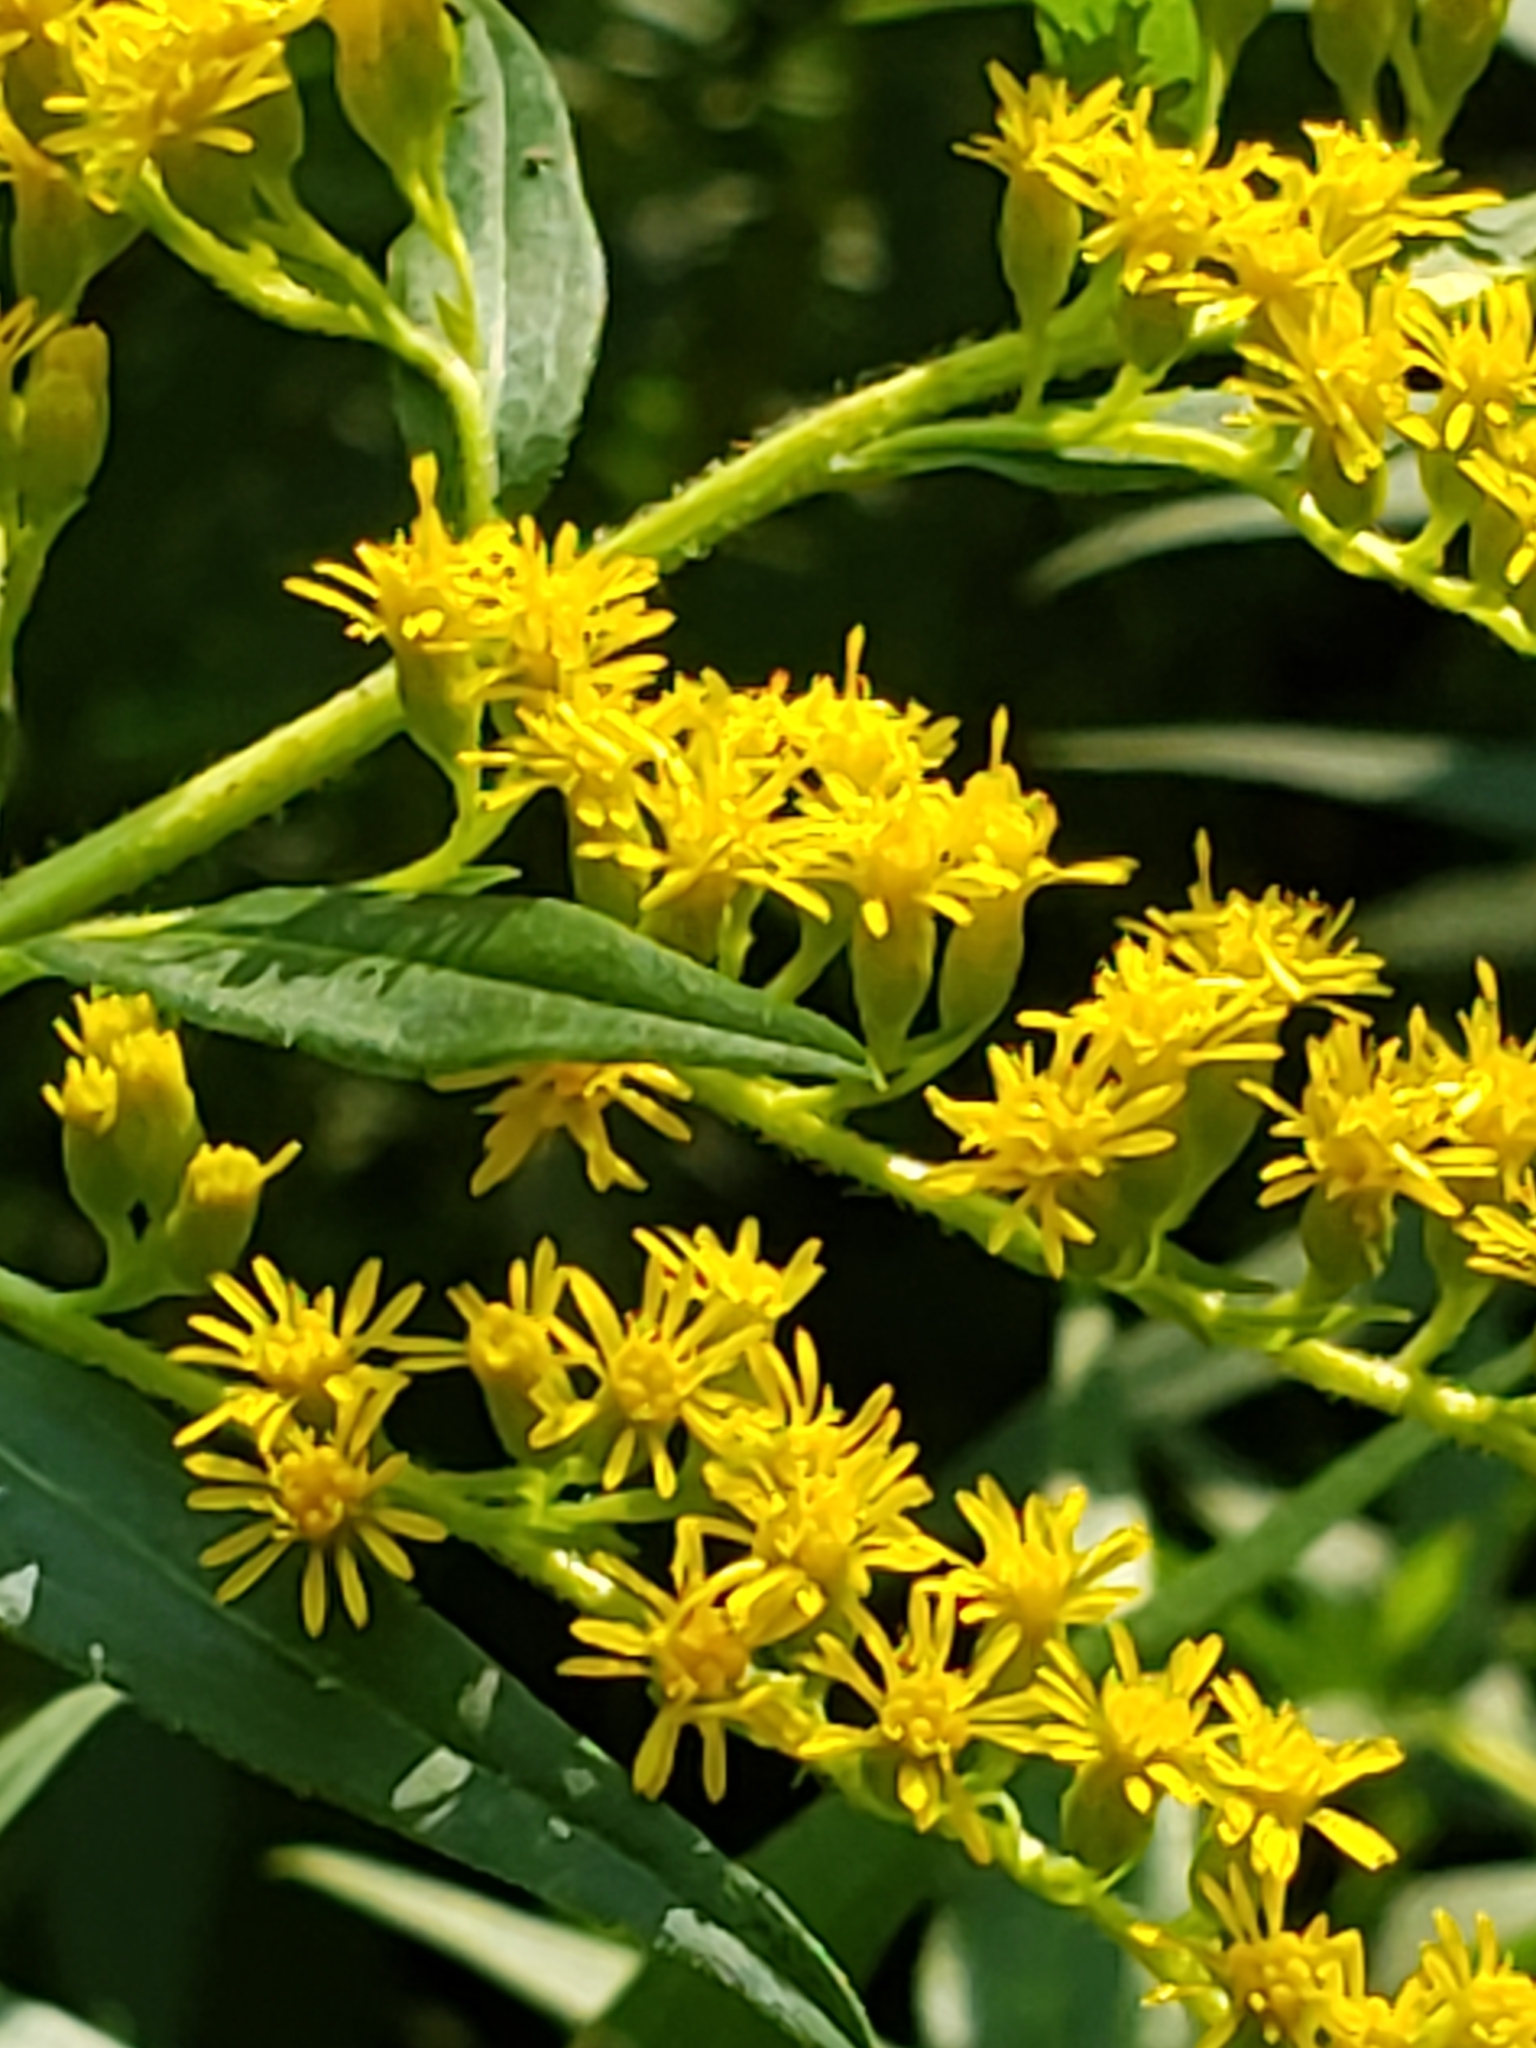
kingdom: Animalia
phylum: Arthropoda
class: Insecta
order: Diptera
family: Cecidomyiidae
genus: Rhopalomyia
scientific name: Rhopalomyia solidaginis
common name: Goldenrod bunch gall midge
